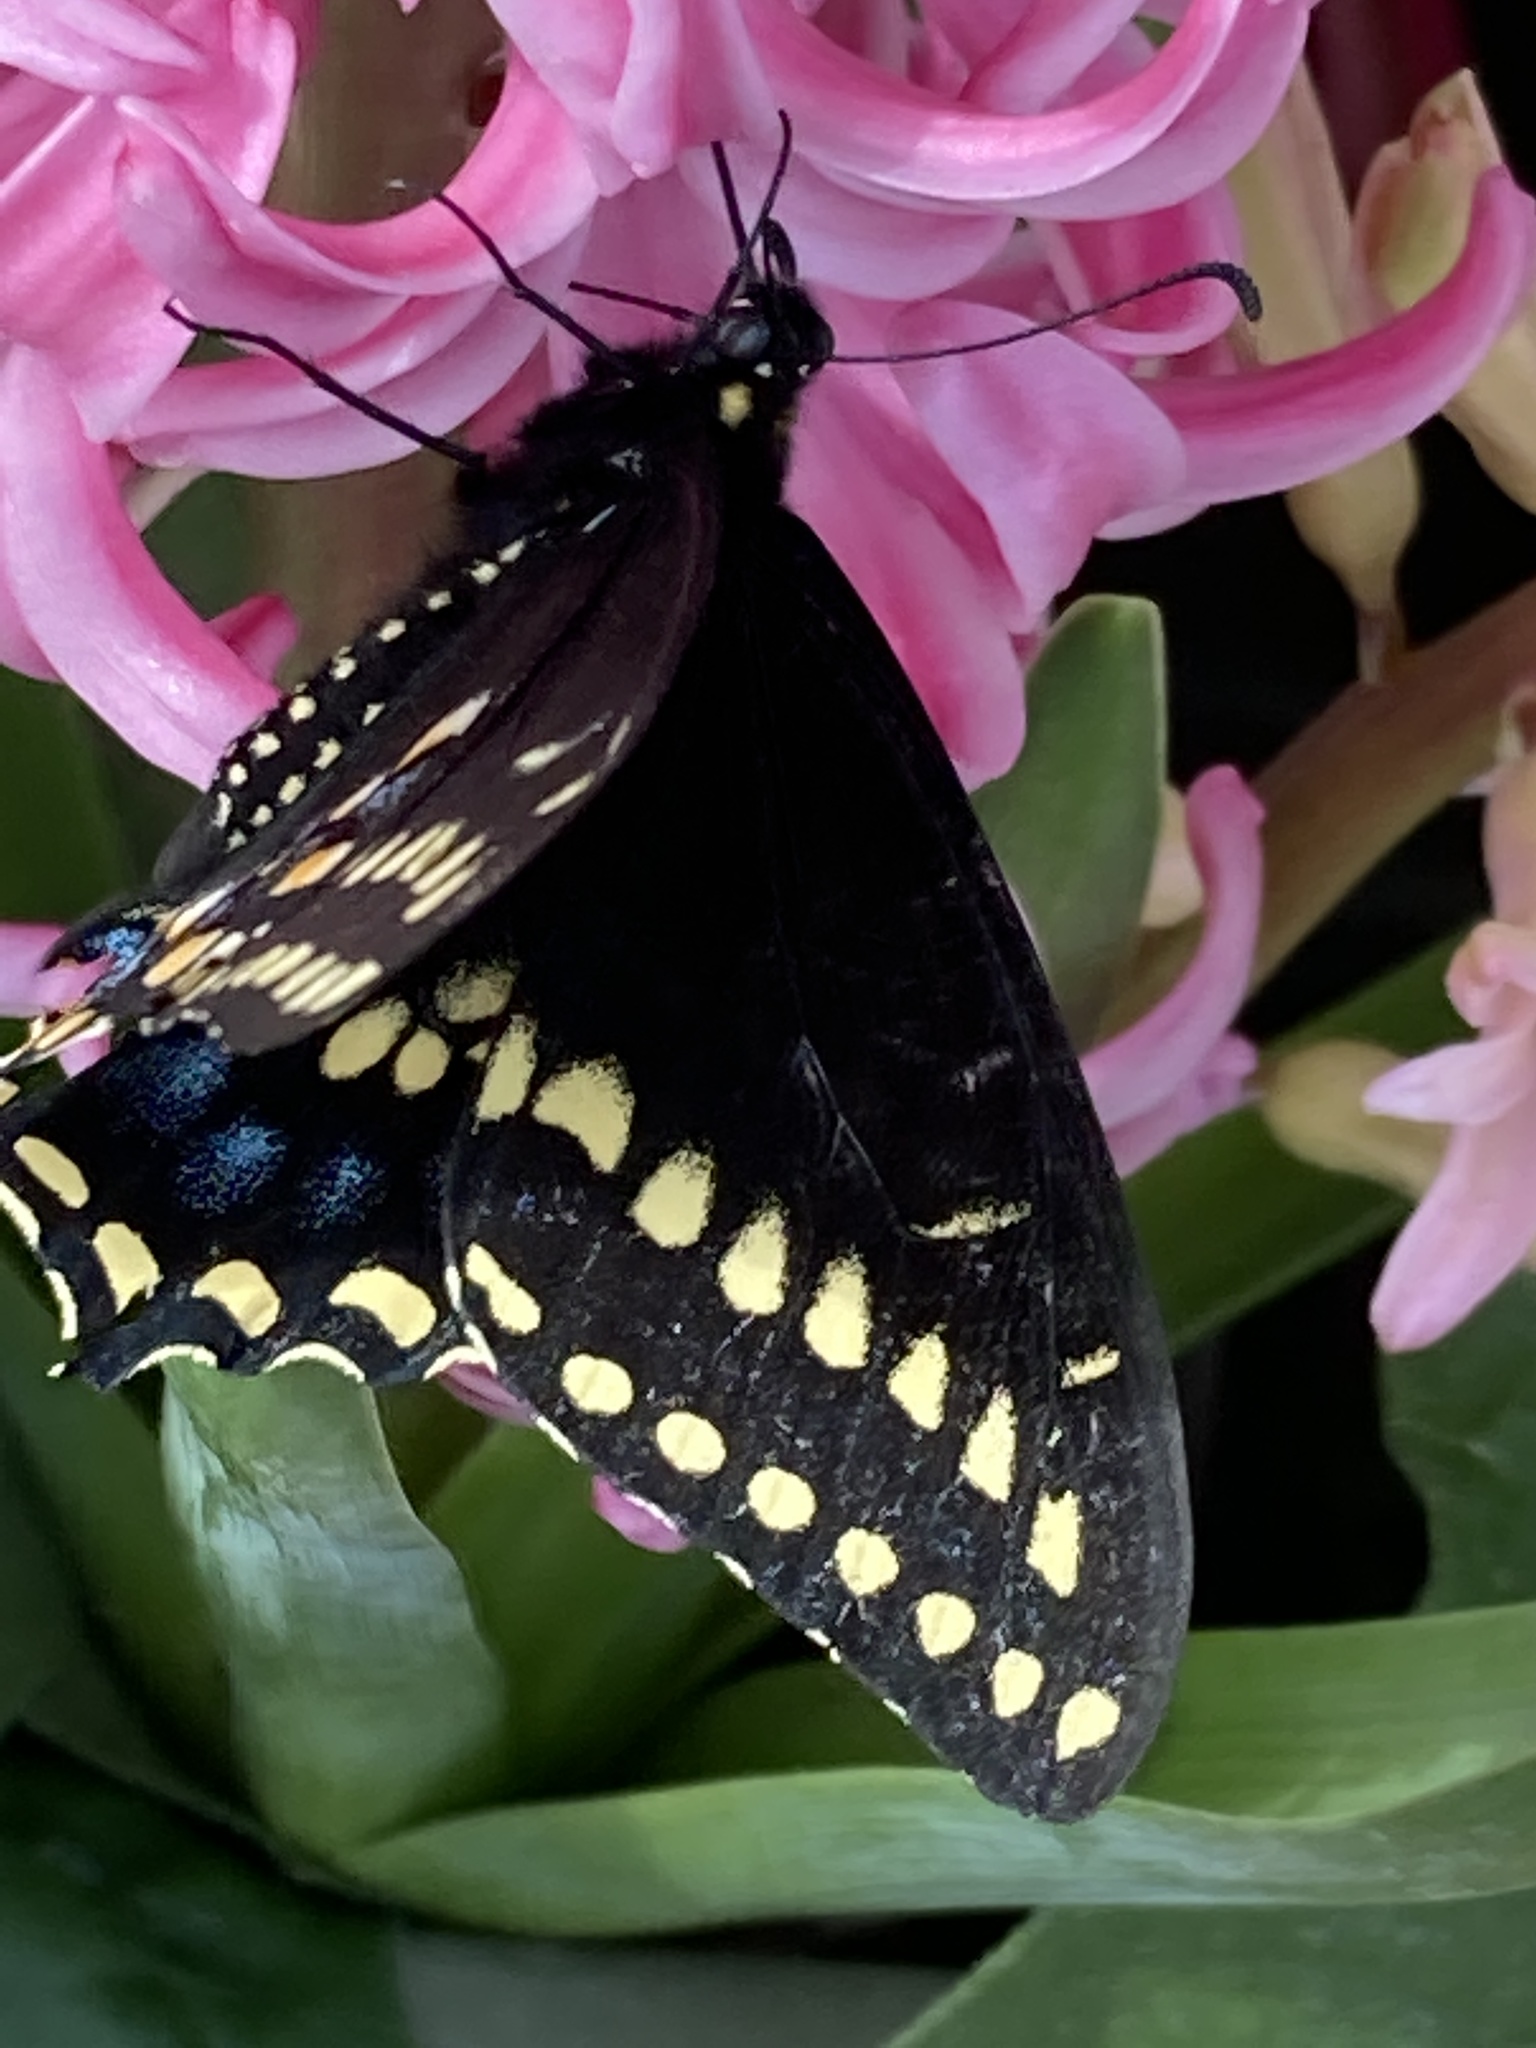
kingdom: Animalia
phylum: Arthropoda
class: Insecta
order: Lepidoptera
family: Papilionidae
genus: Papilio
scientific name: Papilio polyxenes
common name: Black swallowtail
